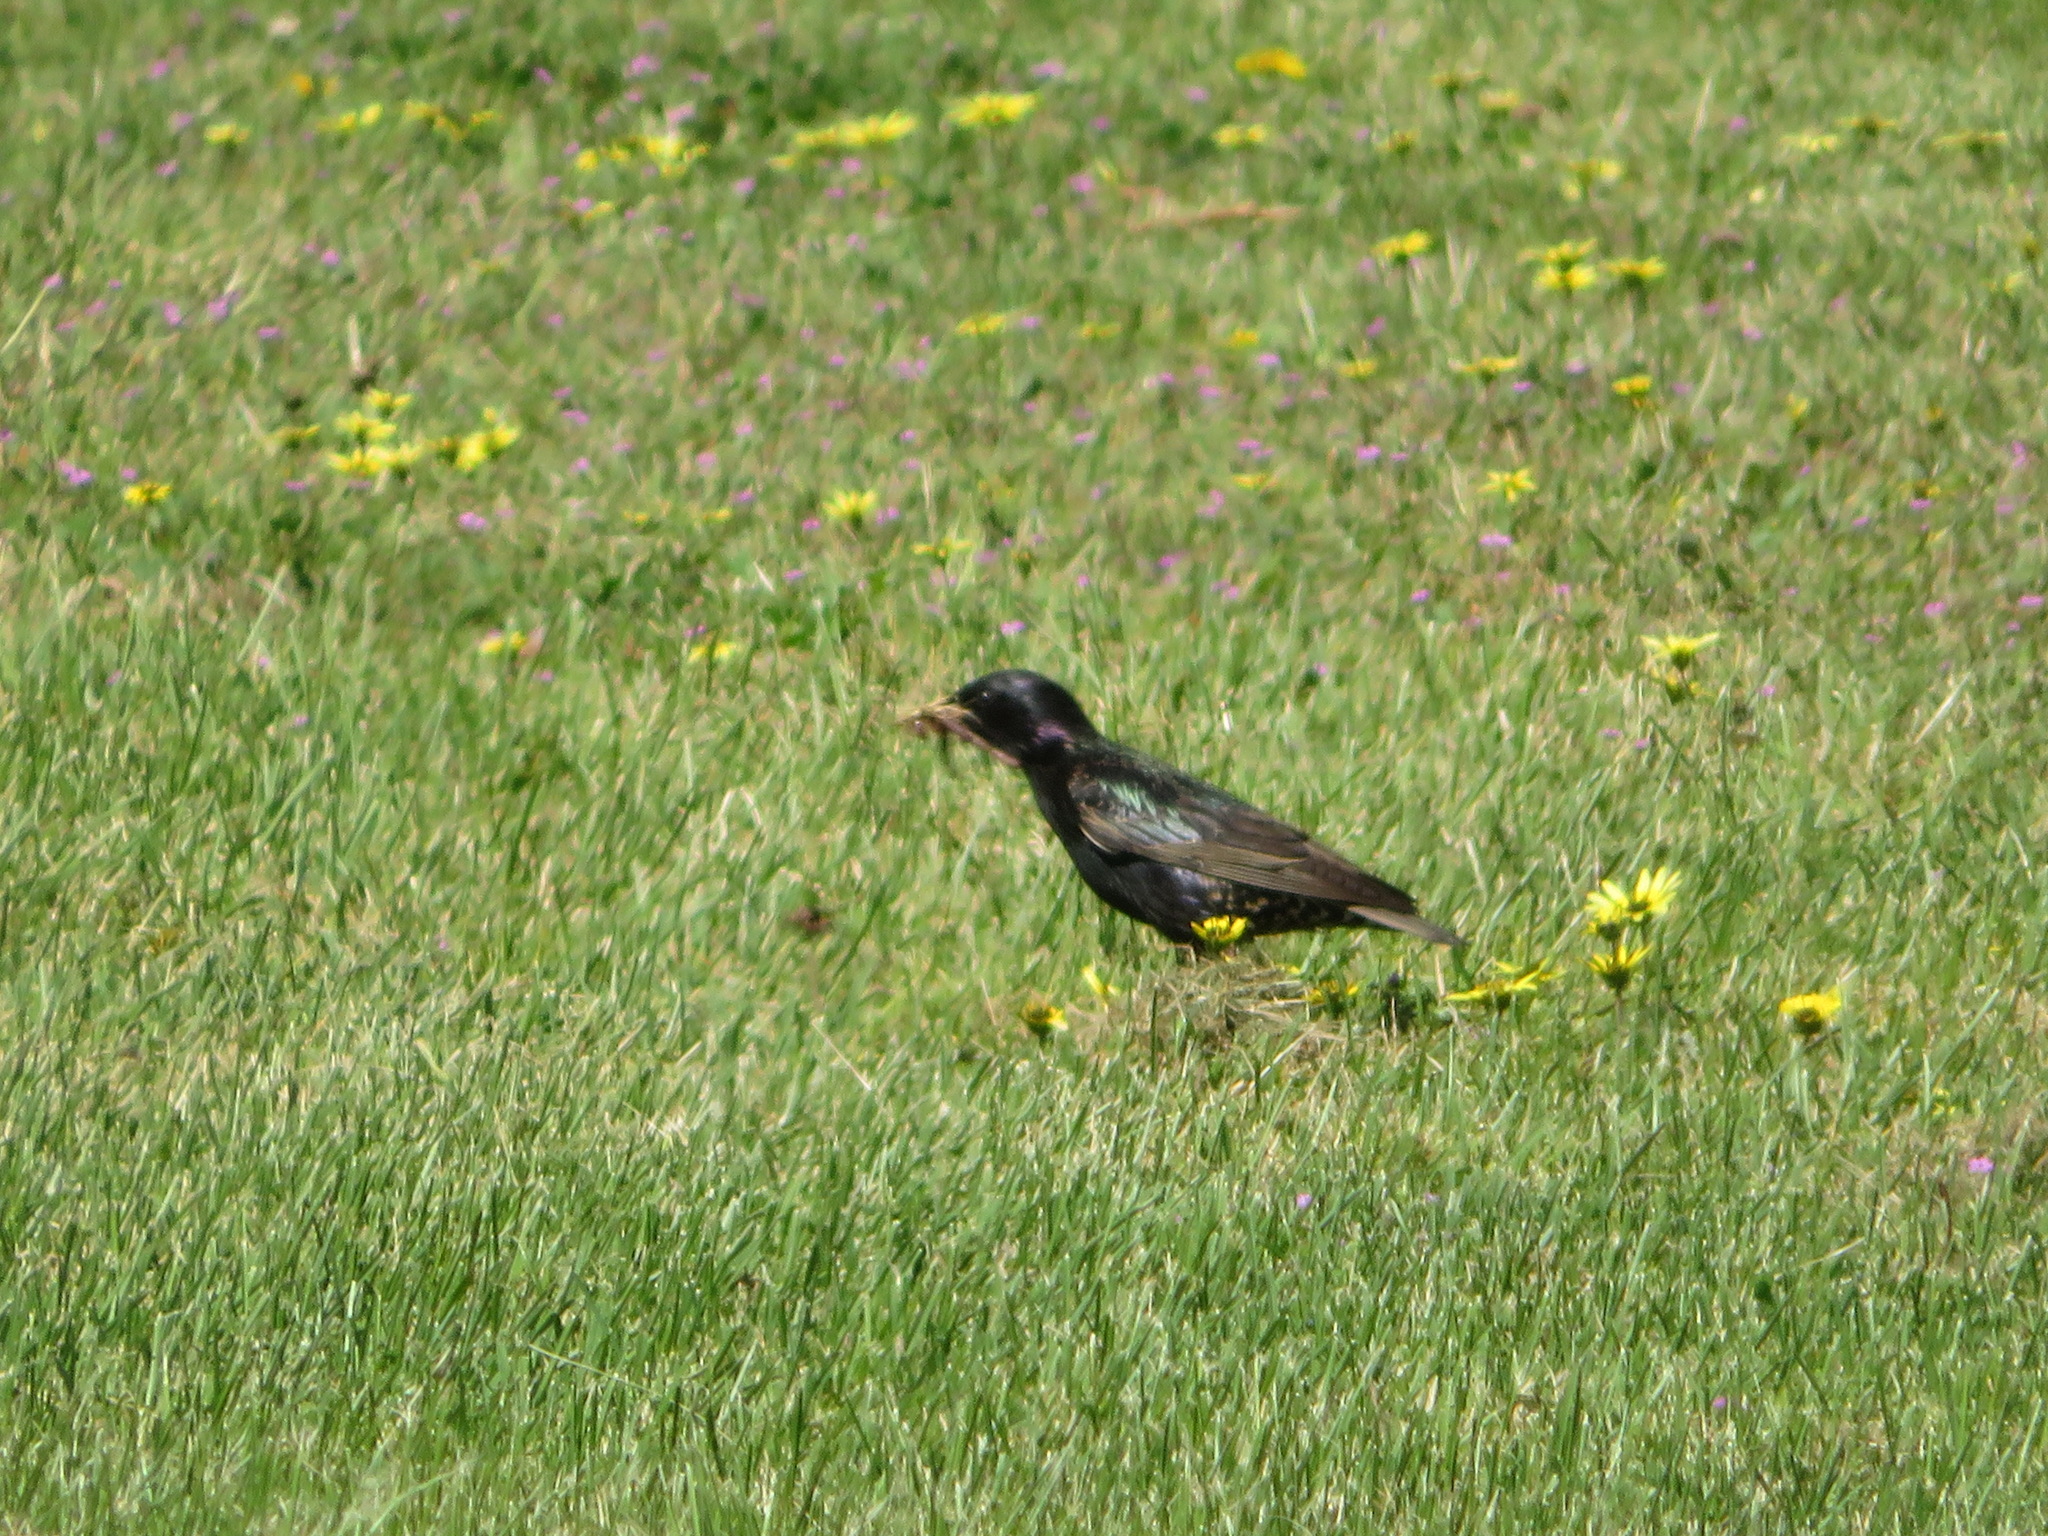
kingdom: Animalia
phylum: Chordata
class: Aves
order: Passeriformes
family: Sturnidae
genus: Sturnus
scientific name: Sturnus vulgaris
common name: Common starling
